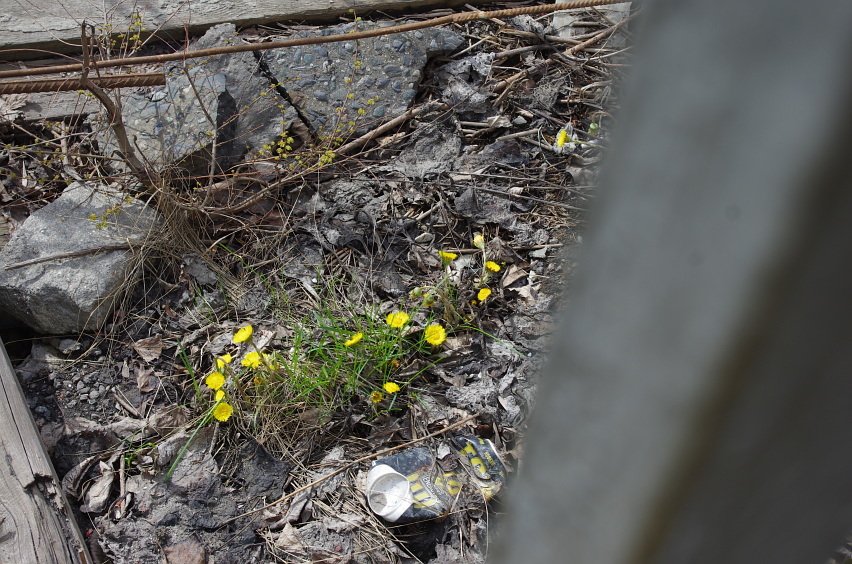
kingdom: Plantae
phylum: Tracheophyta
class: Magnoliopsida
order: Asterales
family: Asteraceae
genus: Tussilago
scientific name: Tussilago farfara
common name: Coltsfoot
